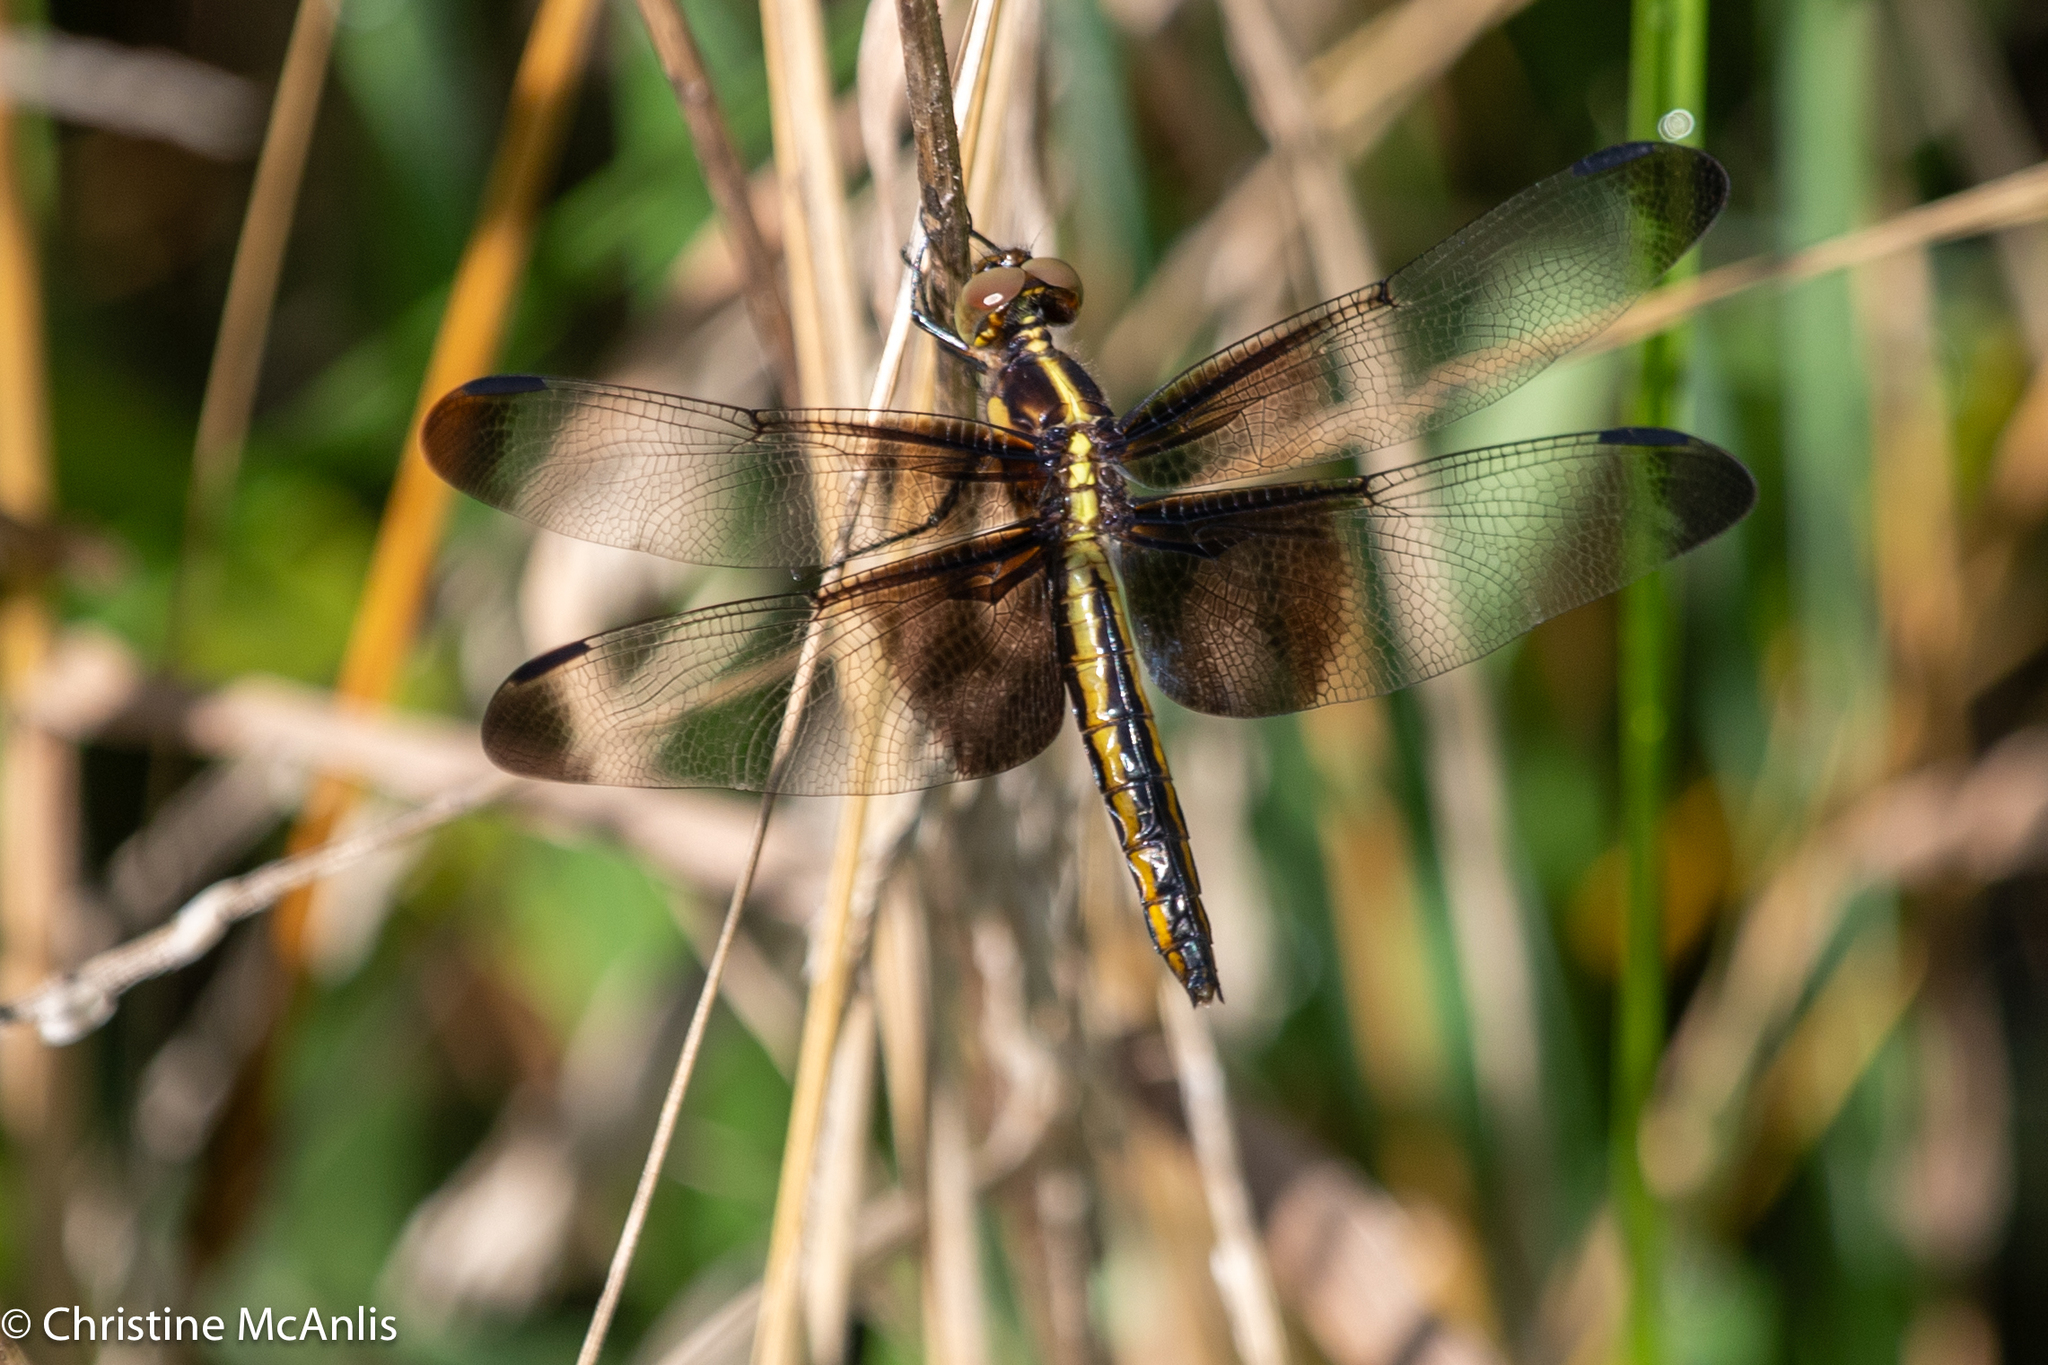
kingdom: Animalia
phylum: Arthropoda
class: Insecta
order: Odonata
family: Libellulidae
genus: Libellula
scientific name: Libellula luctuosa
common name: Widow skimmer
